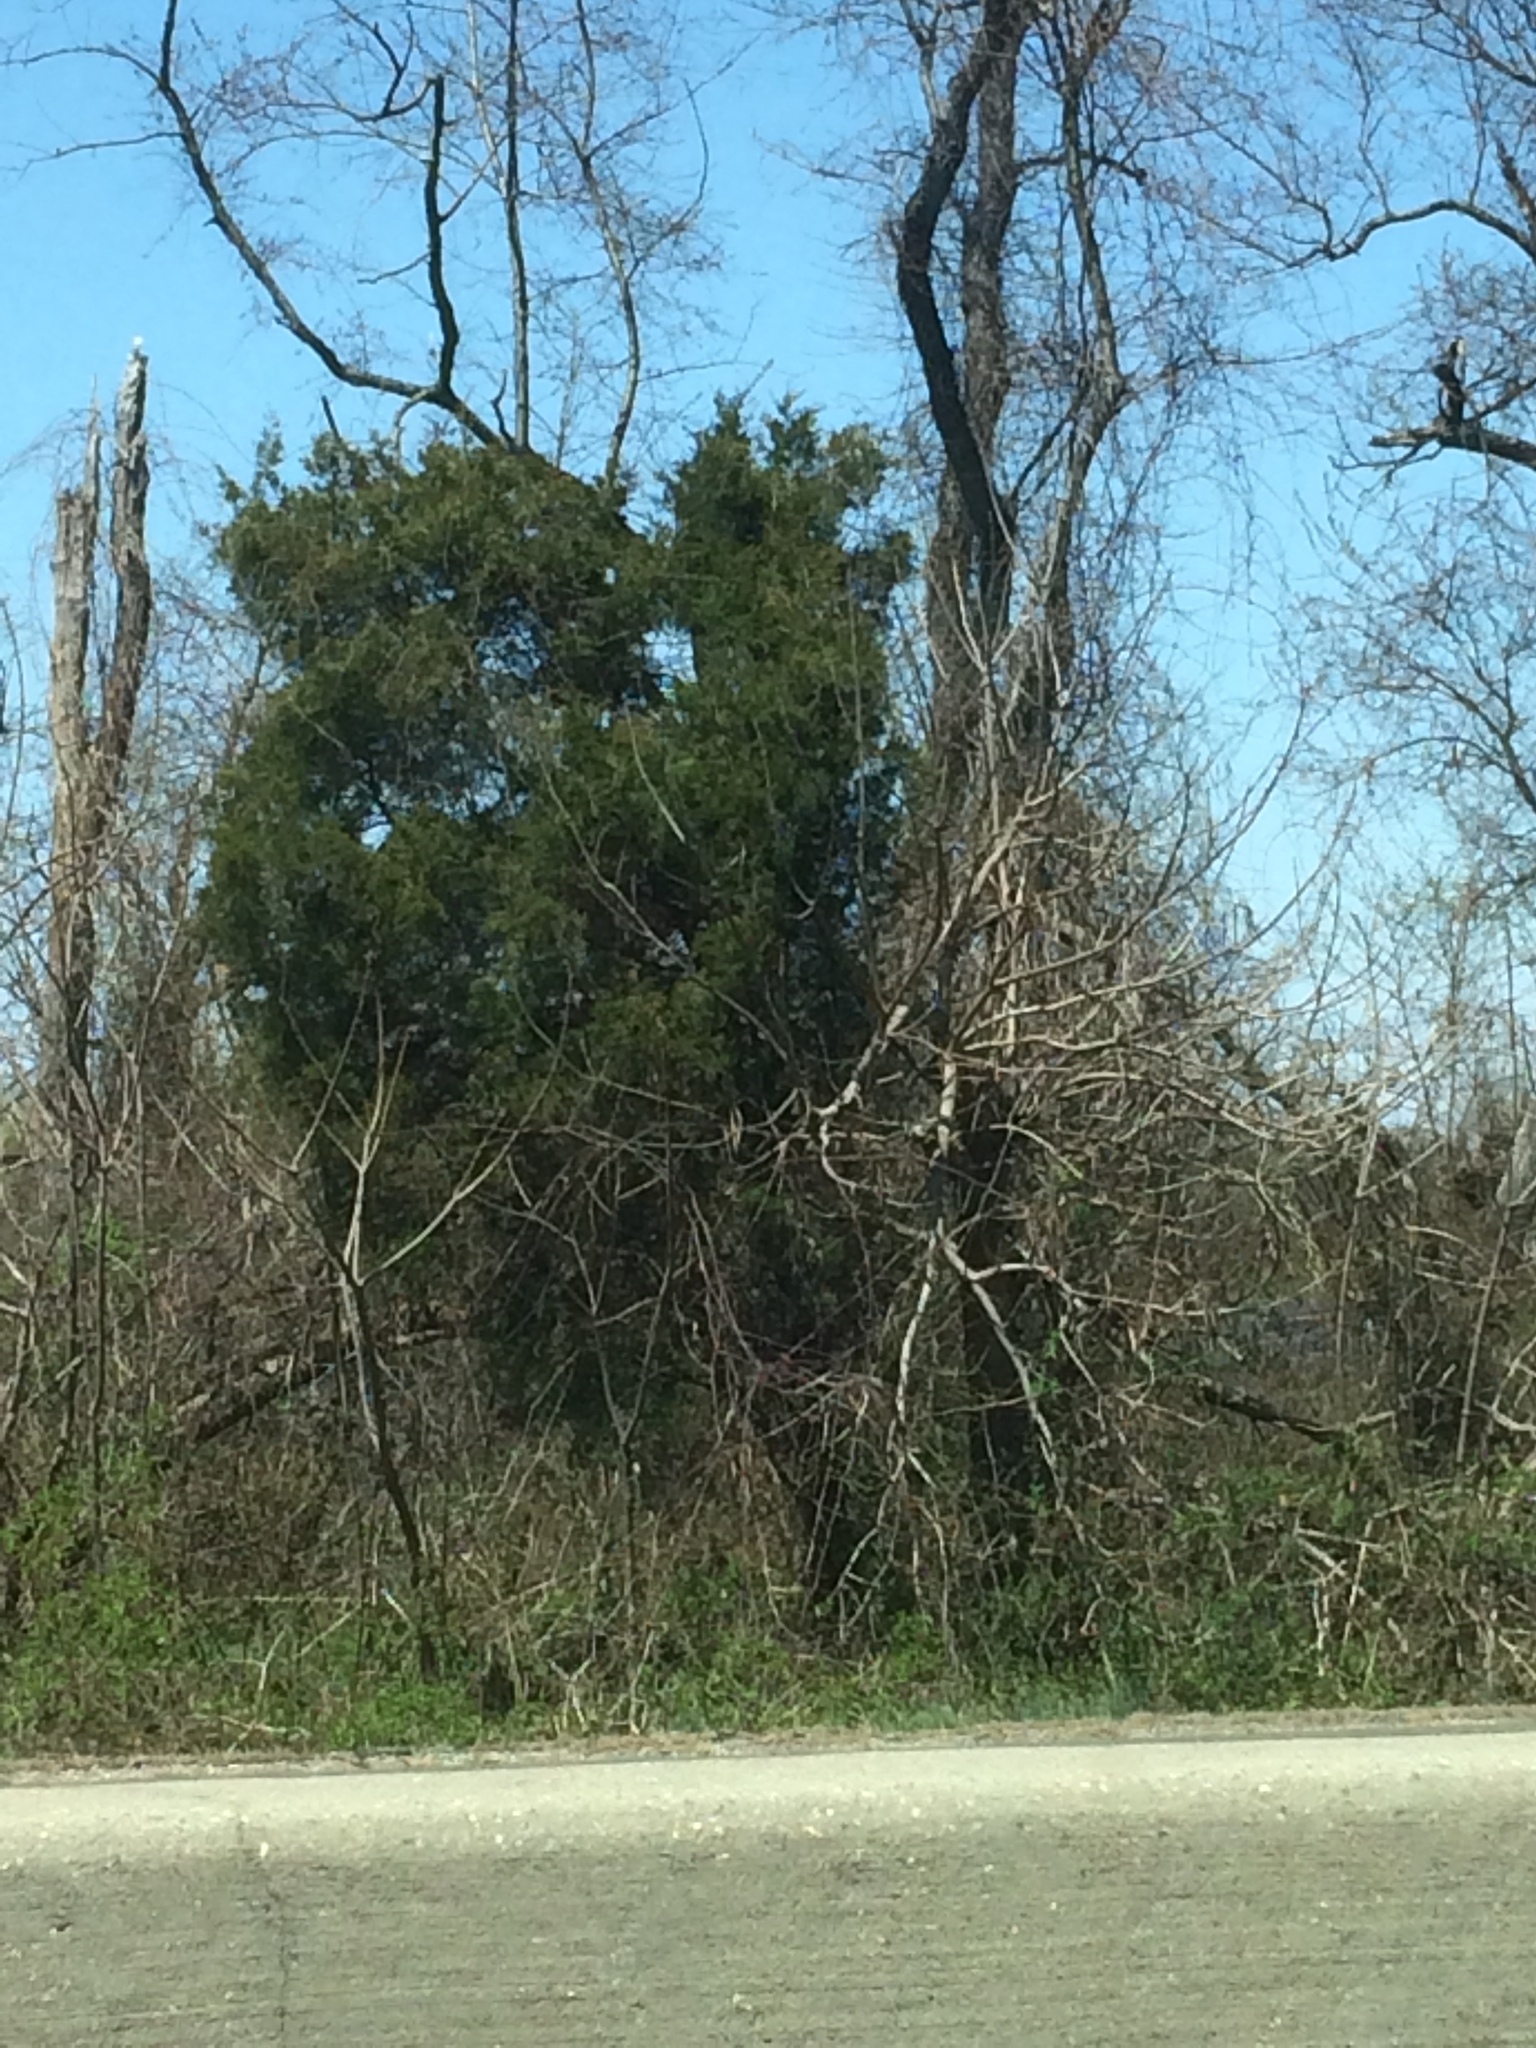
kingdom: Plantae
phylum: Tracheophyta
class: Pinopsida
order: Pinales
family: Cupressaceae
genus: Juniperus
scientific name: Juniperus virginiana
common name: Red juniper
